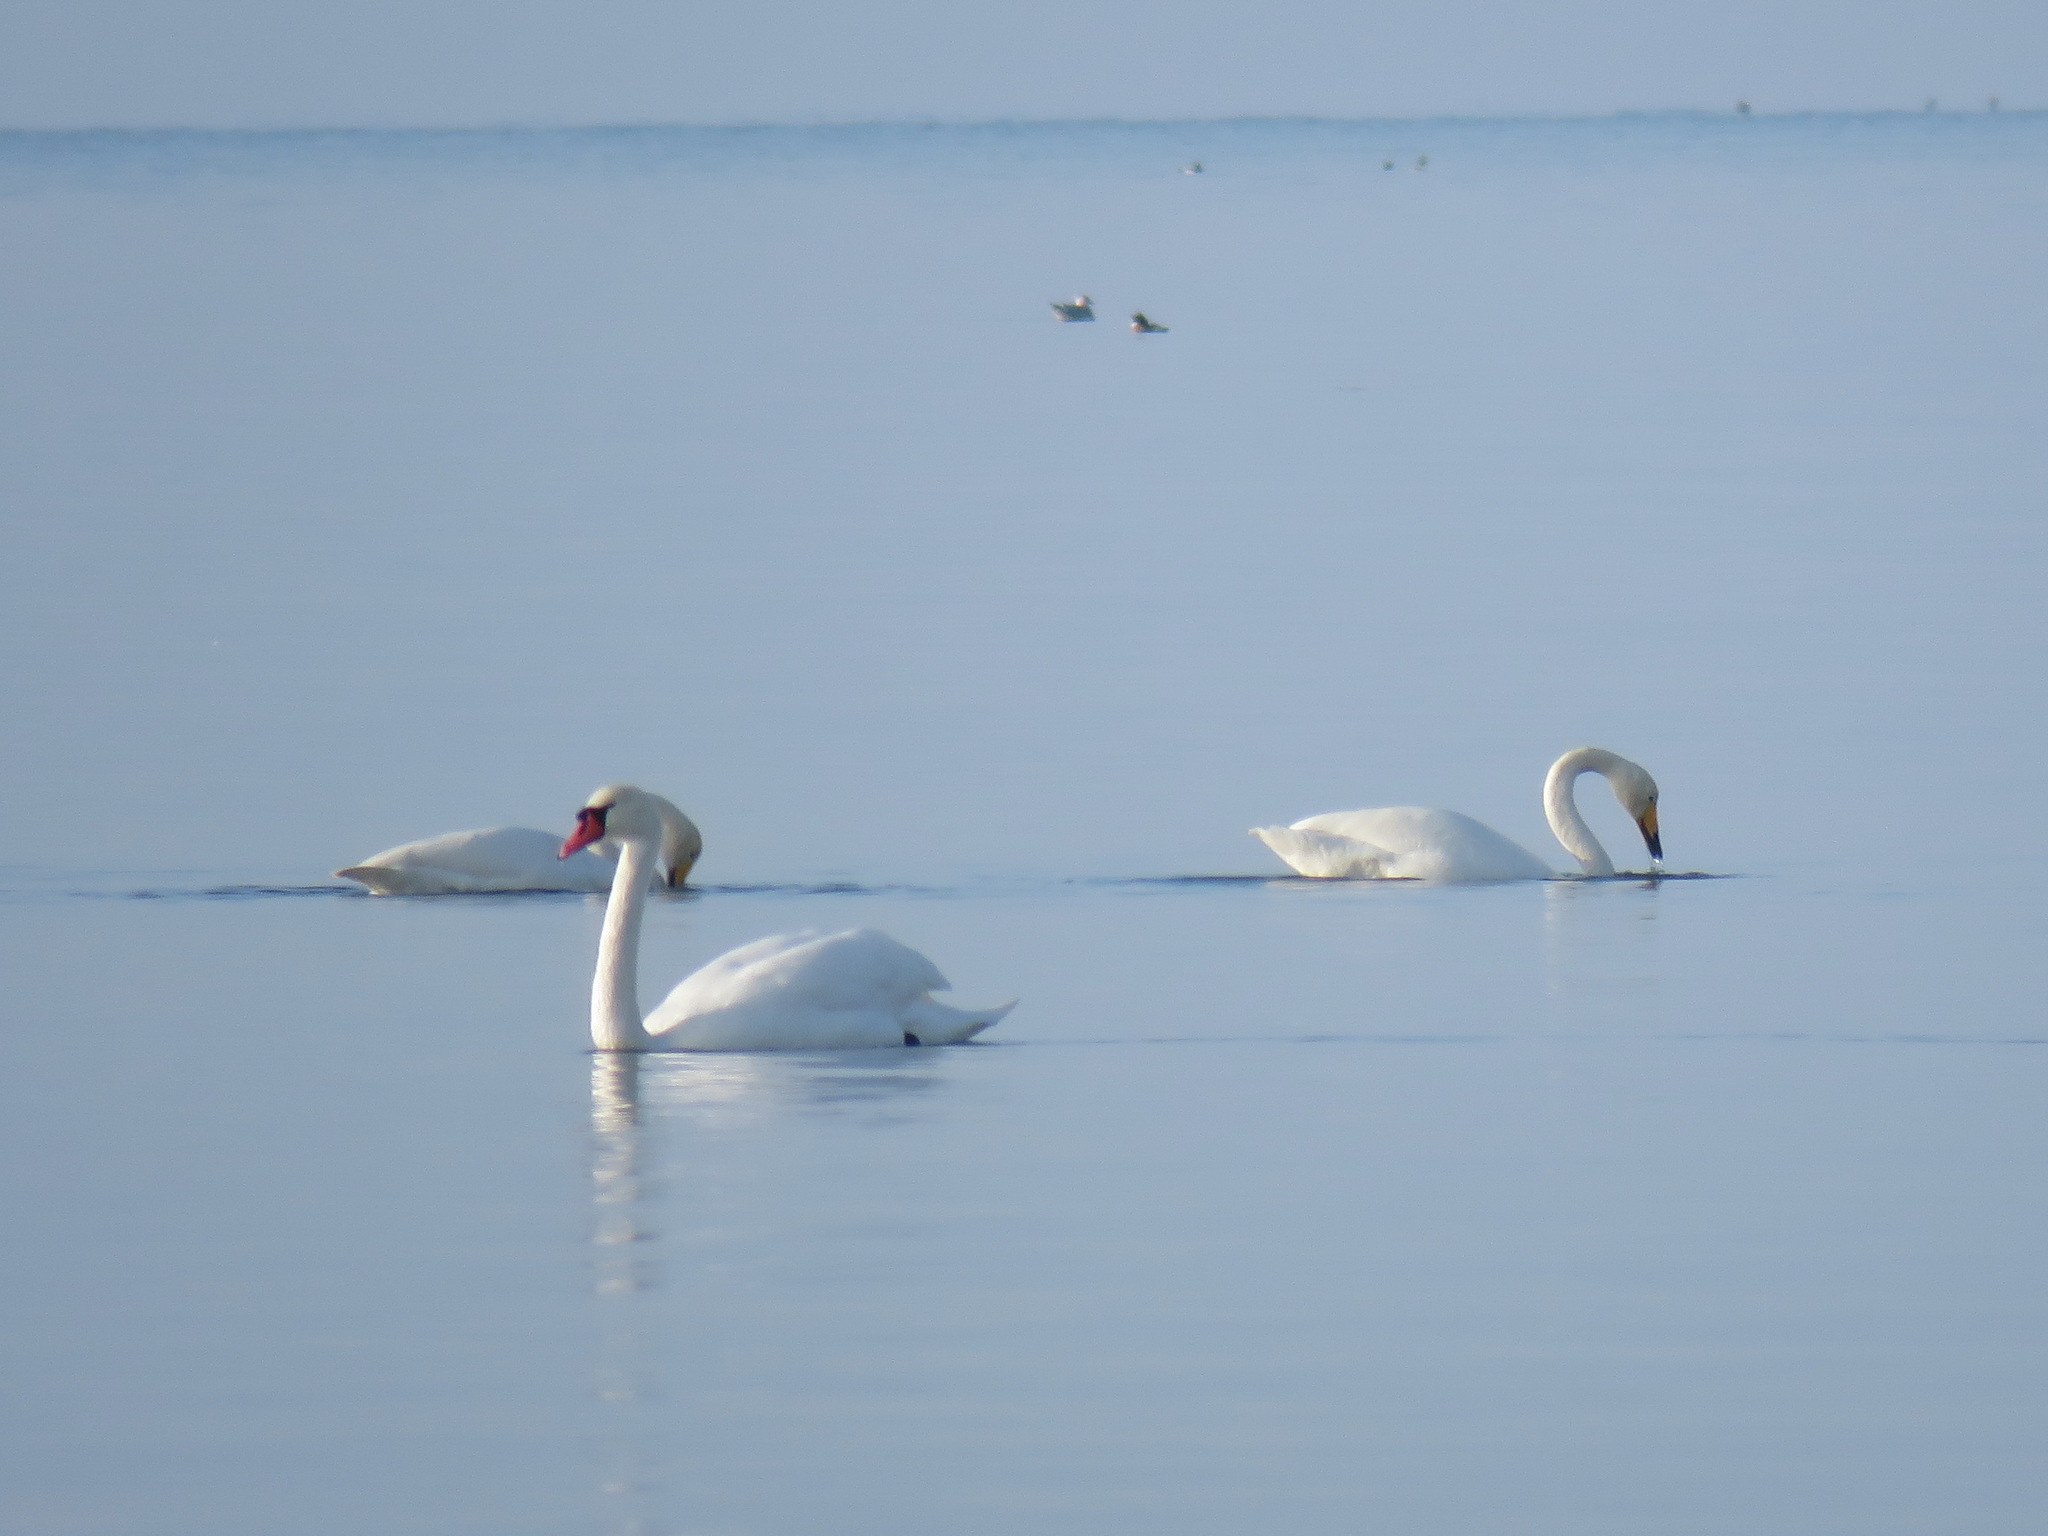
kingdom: Animalia
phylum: Chordata
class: Aves
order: Anseriformes
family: Anatidae
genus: Cygnus
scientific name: Cygnus cygnus
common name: Whooper swan
